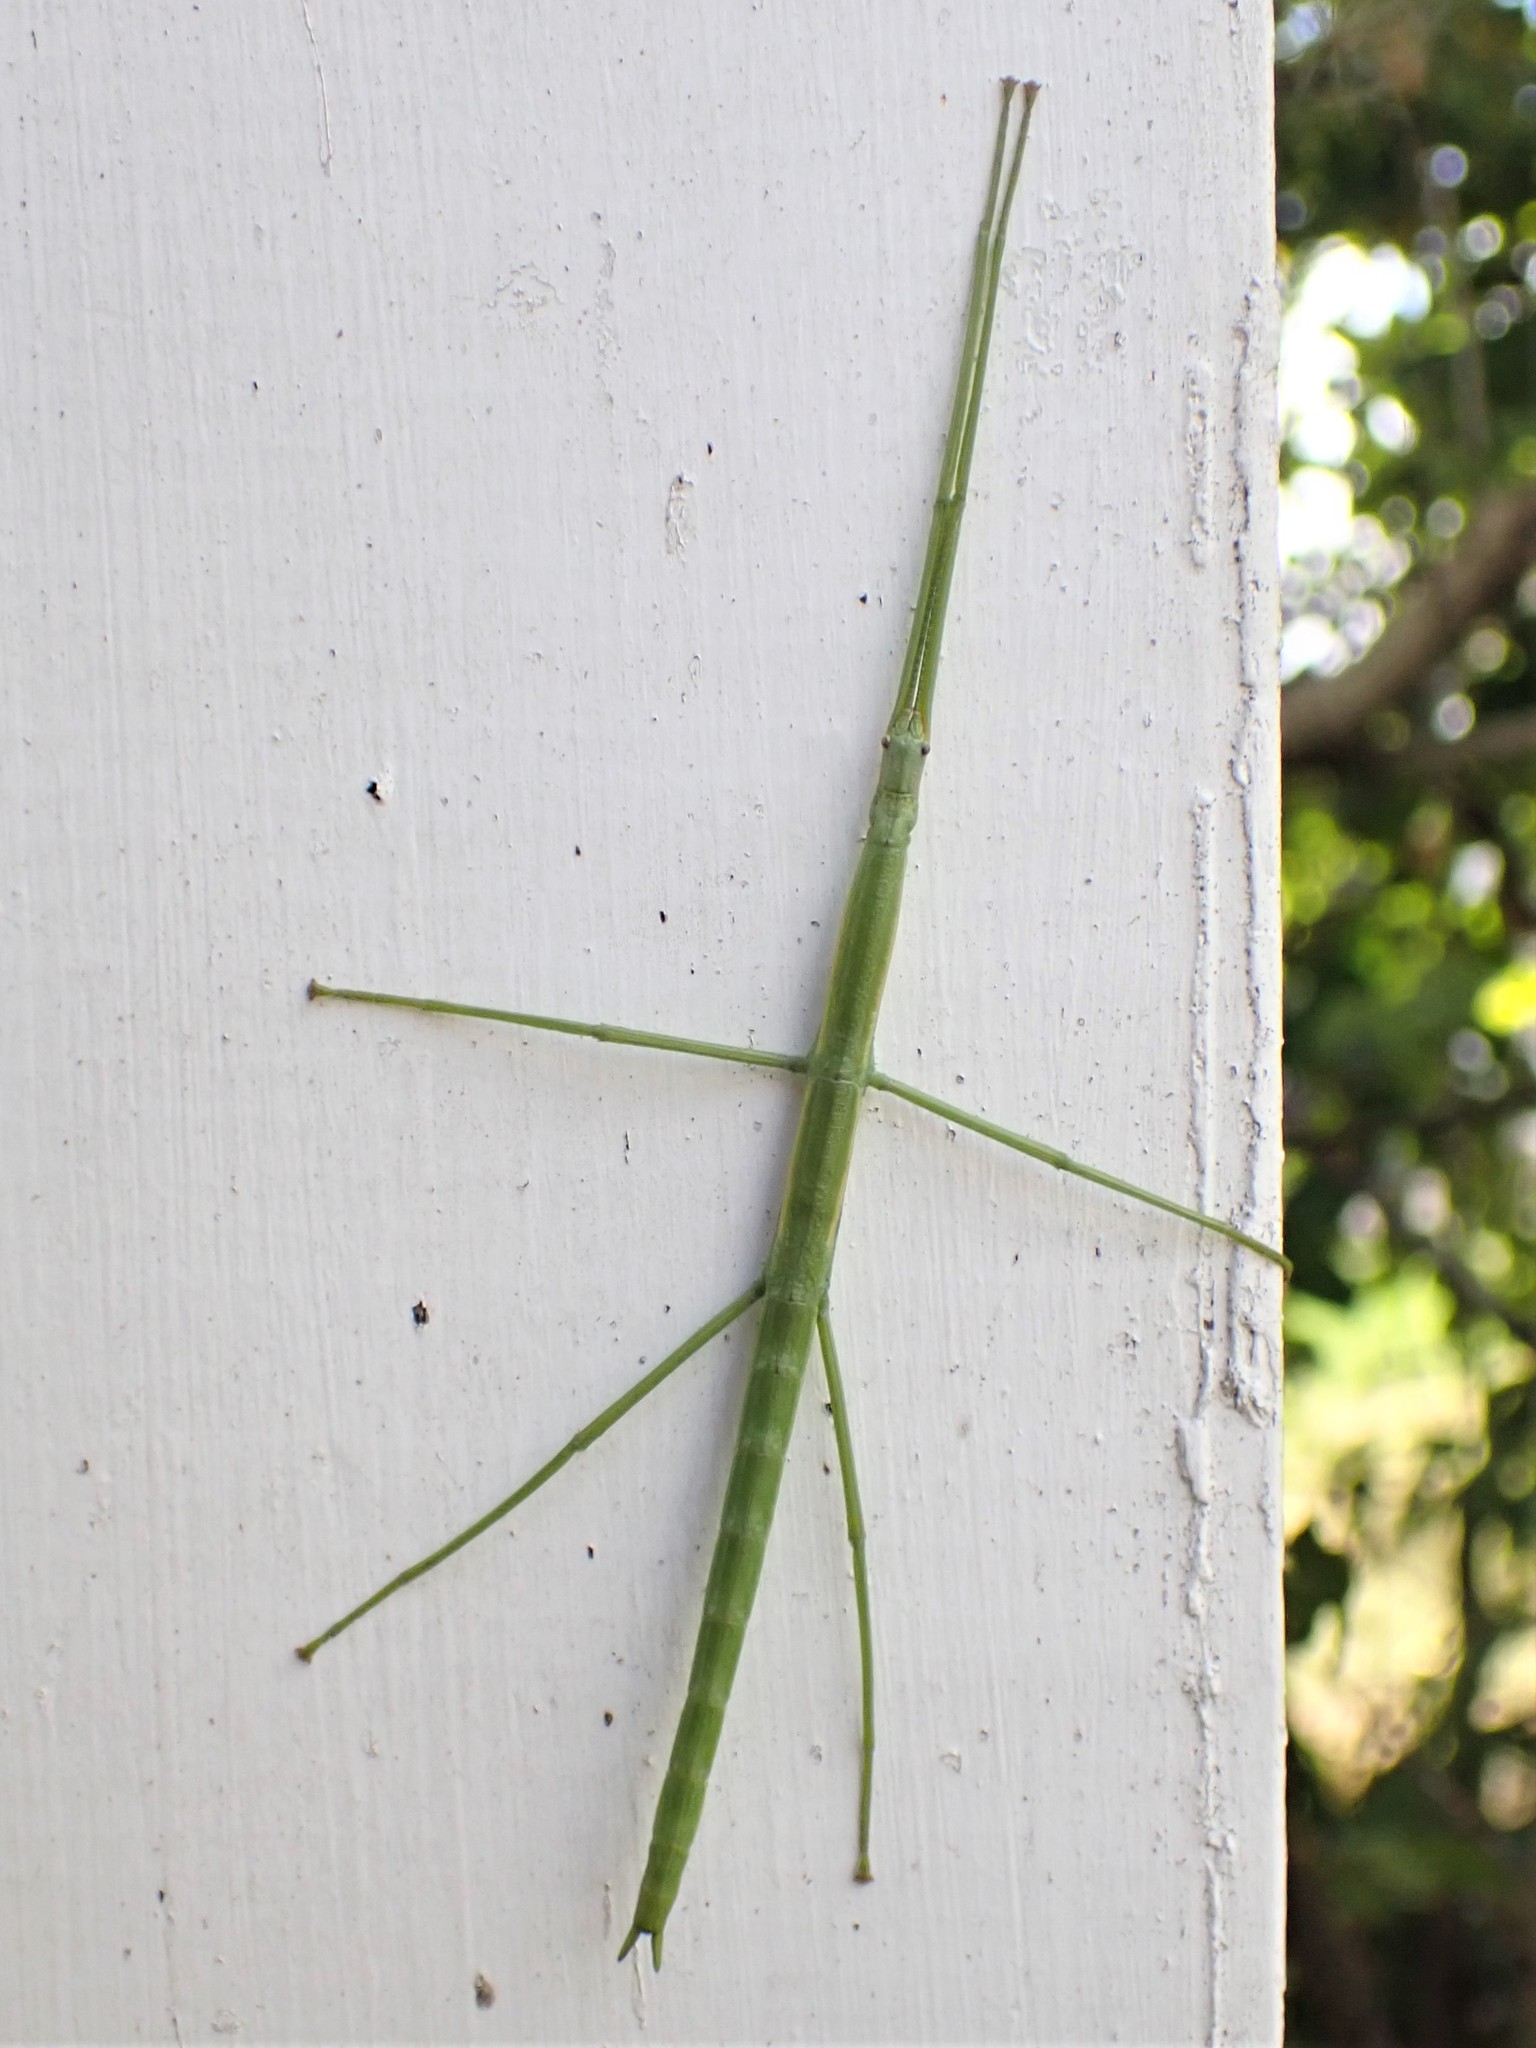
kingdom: Animalia
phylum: Arthropoda
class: Insecta
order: Phasmida
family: Phasmatidae
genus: Clitarchus
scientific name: Clitarchus hookeri
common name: Smooth stick insect
